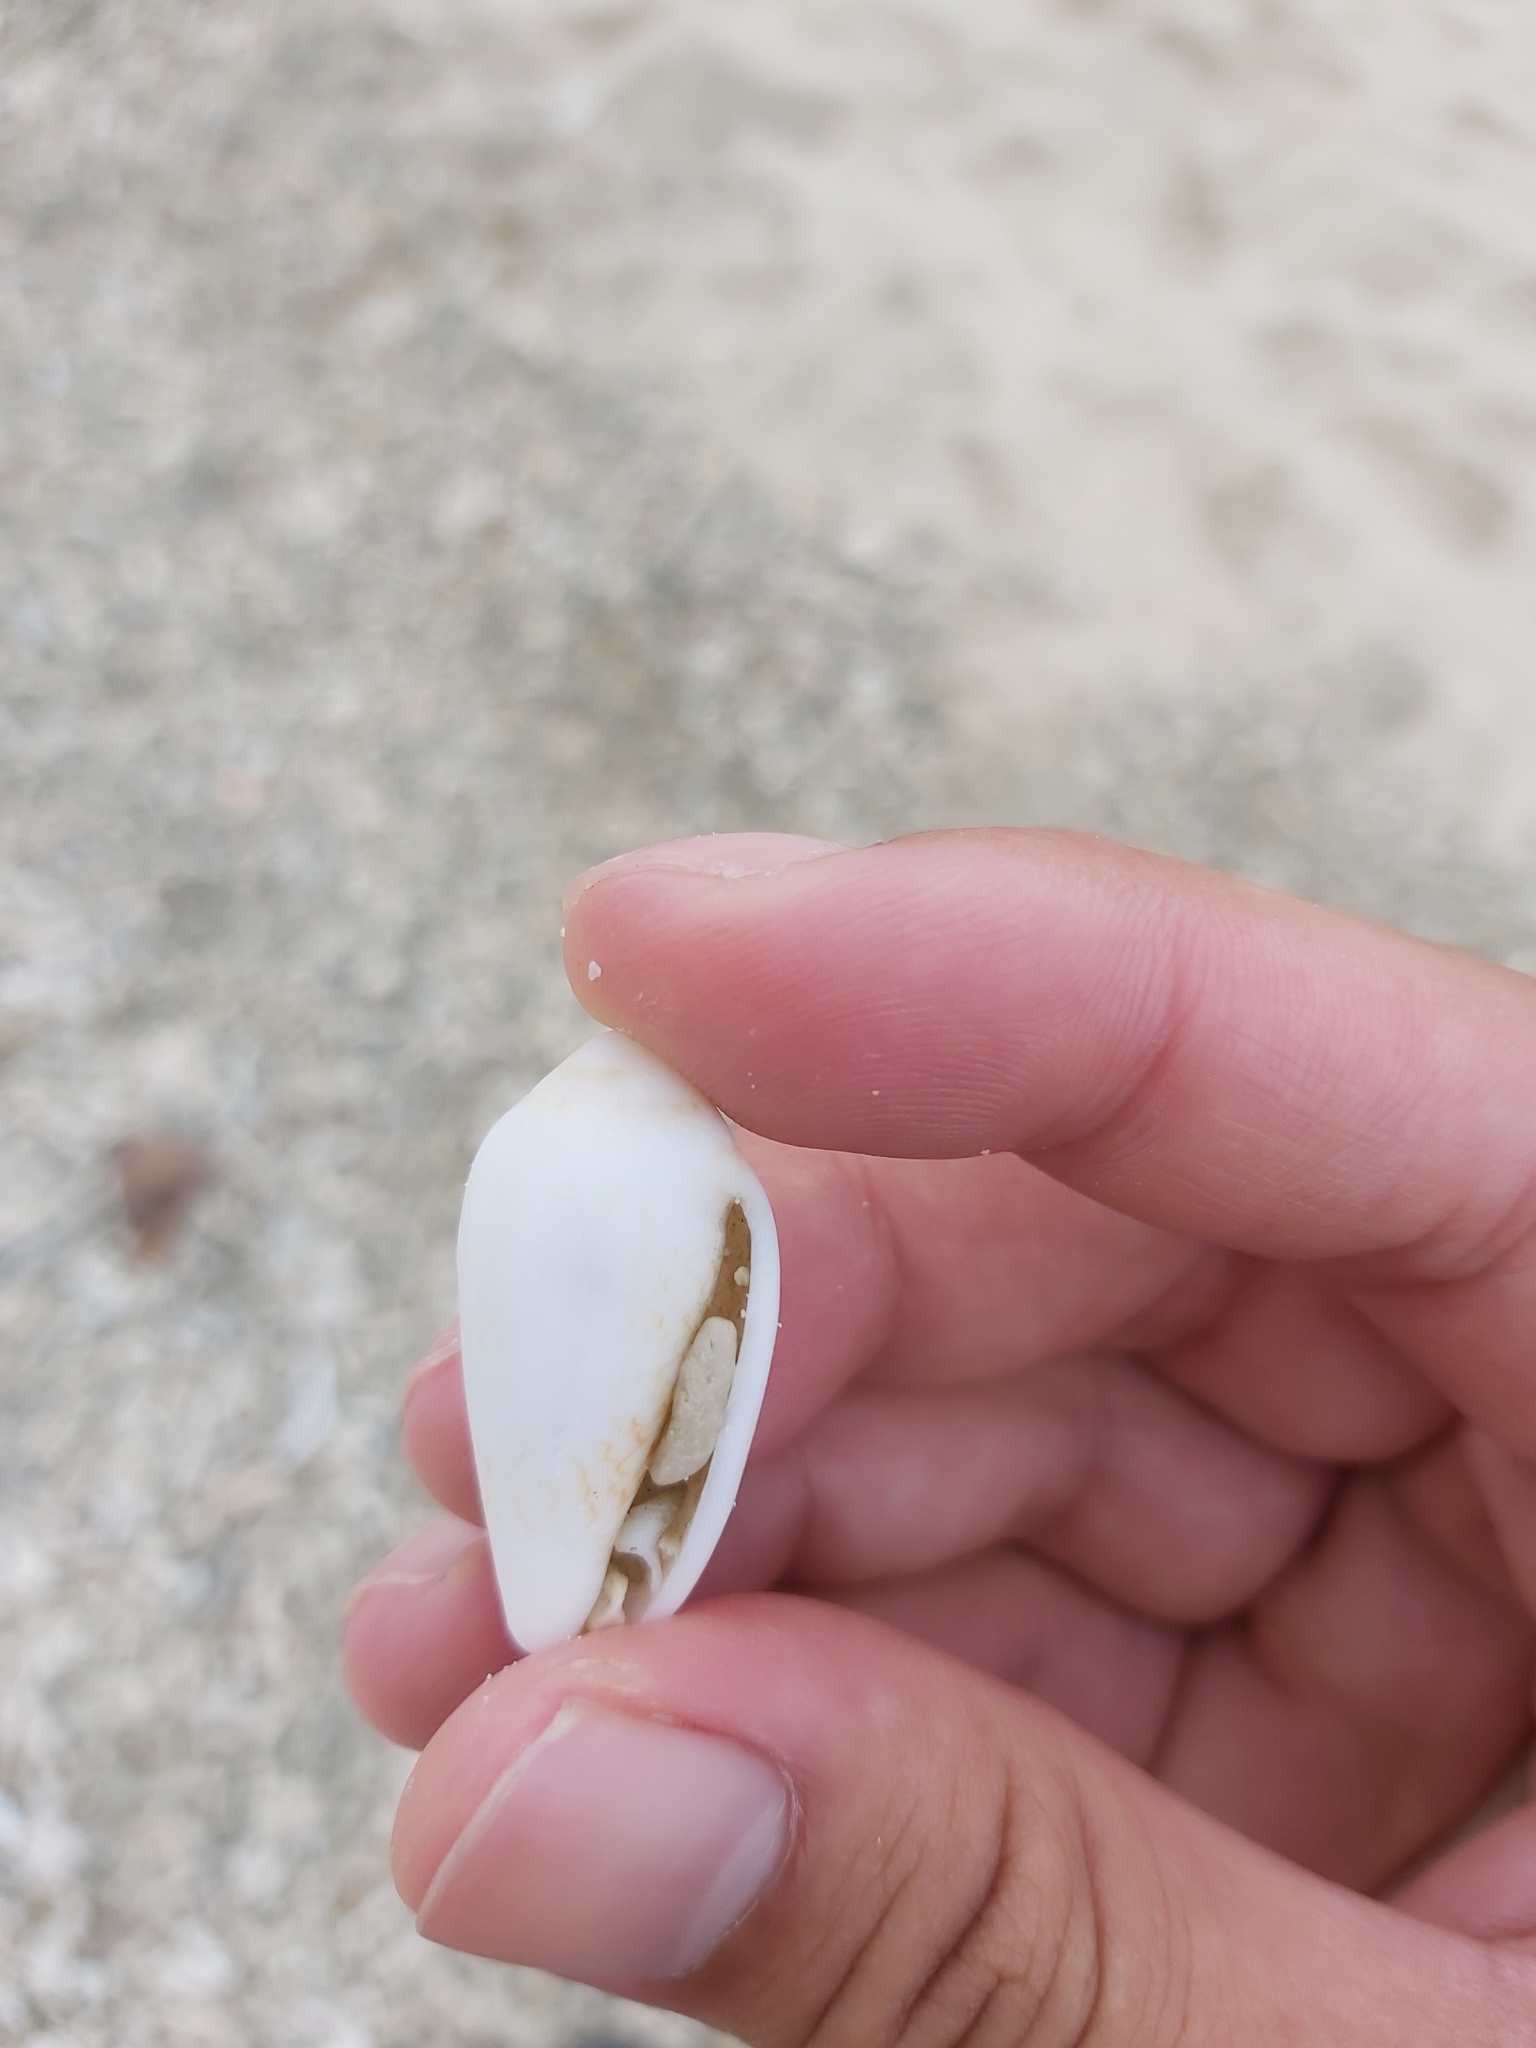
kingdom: Animalia
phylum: Mollusca
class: Gastropoda
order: Neogastropoda
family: Conidae
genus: Conus
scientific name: Conus textile
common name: Cloth-of-gold cone
